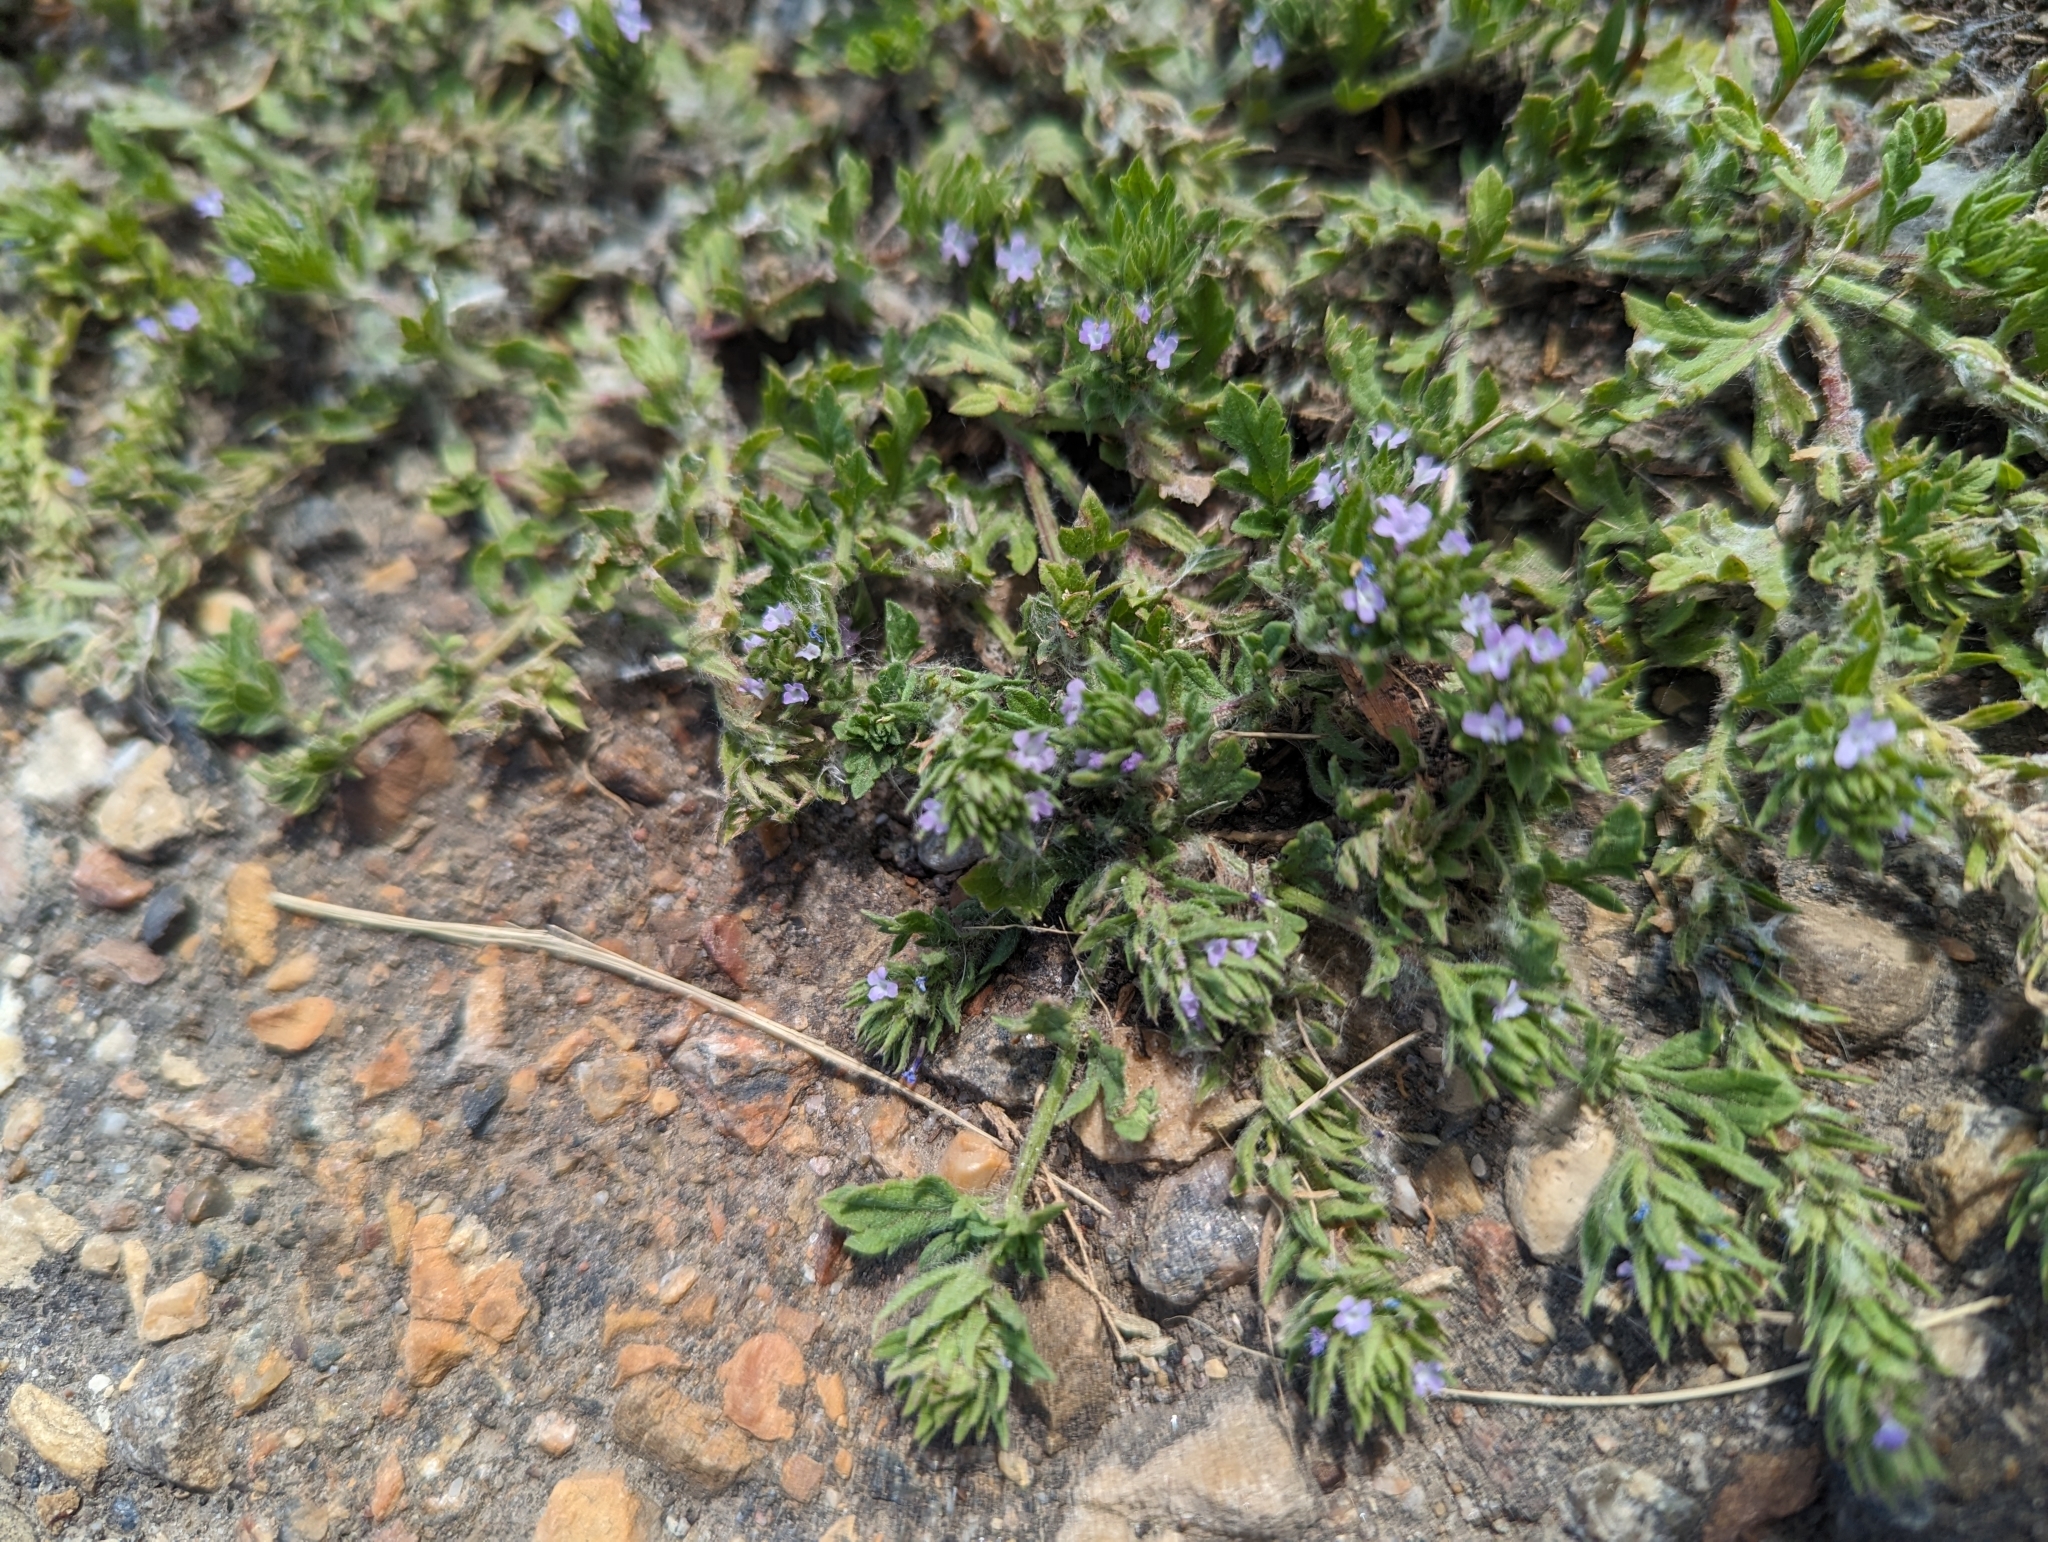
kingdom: Plantae
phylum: Tracheophyta
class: Magnoliopsida
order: Lamiales
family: Verbenaceae
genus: Verbena
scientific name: Verbena bracteata
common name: Bracted vervain
